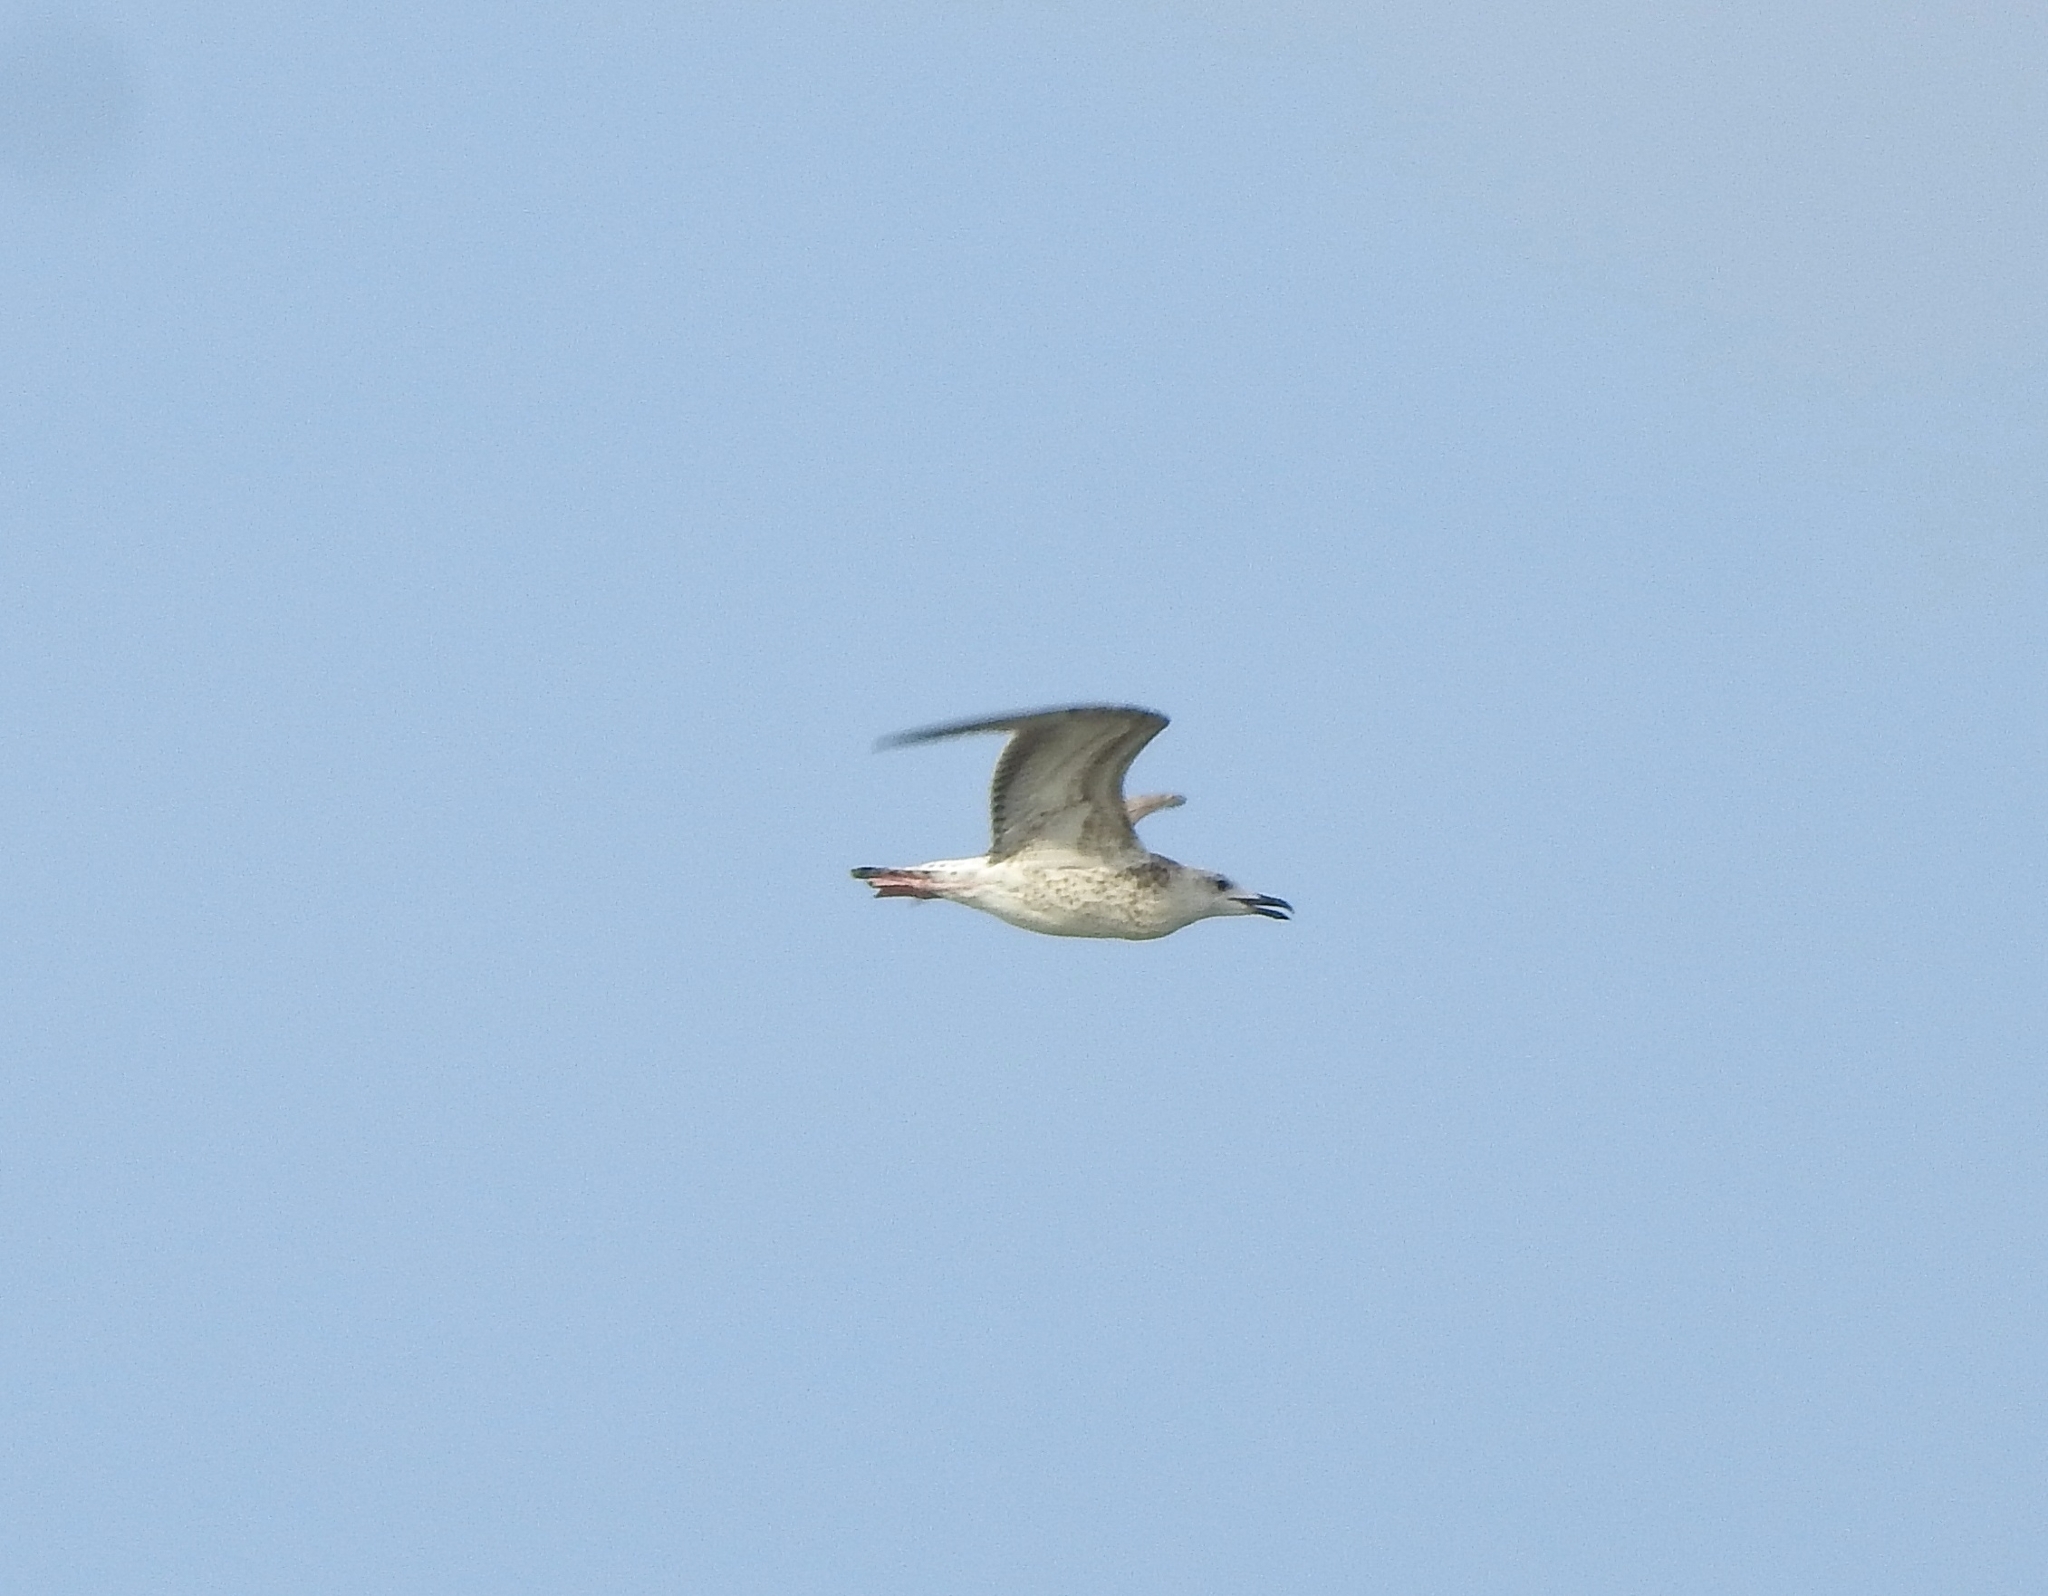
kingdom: Animalia
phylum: Chordata
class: Aves
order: Charadriiformes
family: Laridae
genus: Larus
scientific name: Larus fuscus
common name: Lesser black-backed gull
